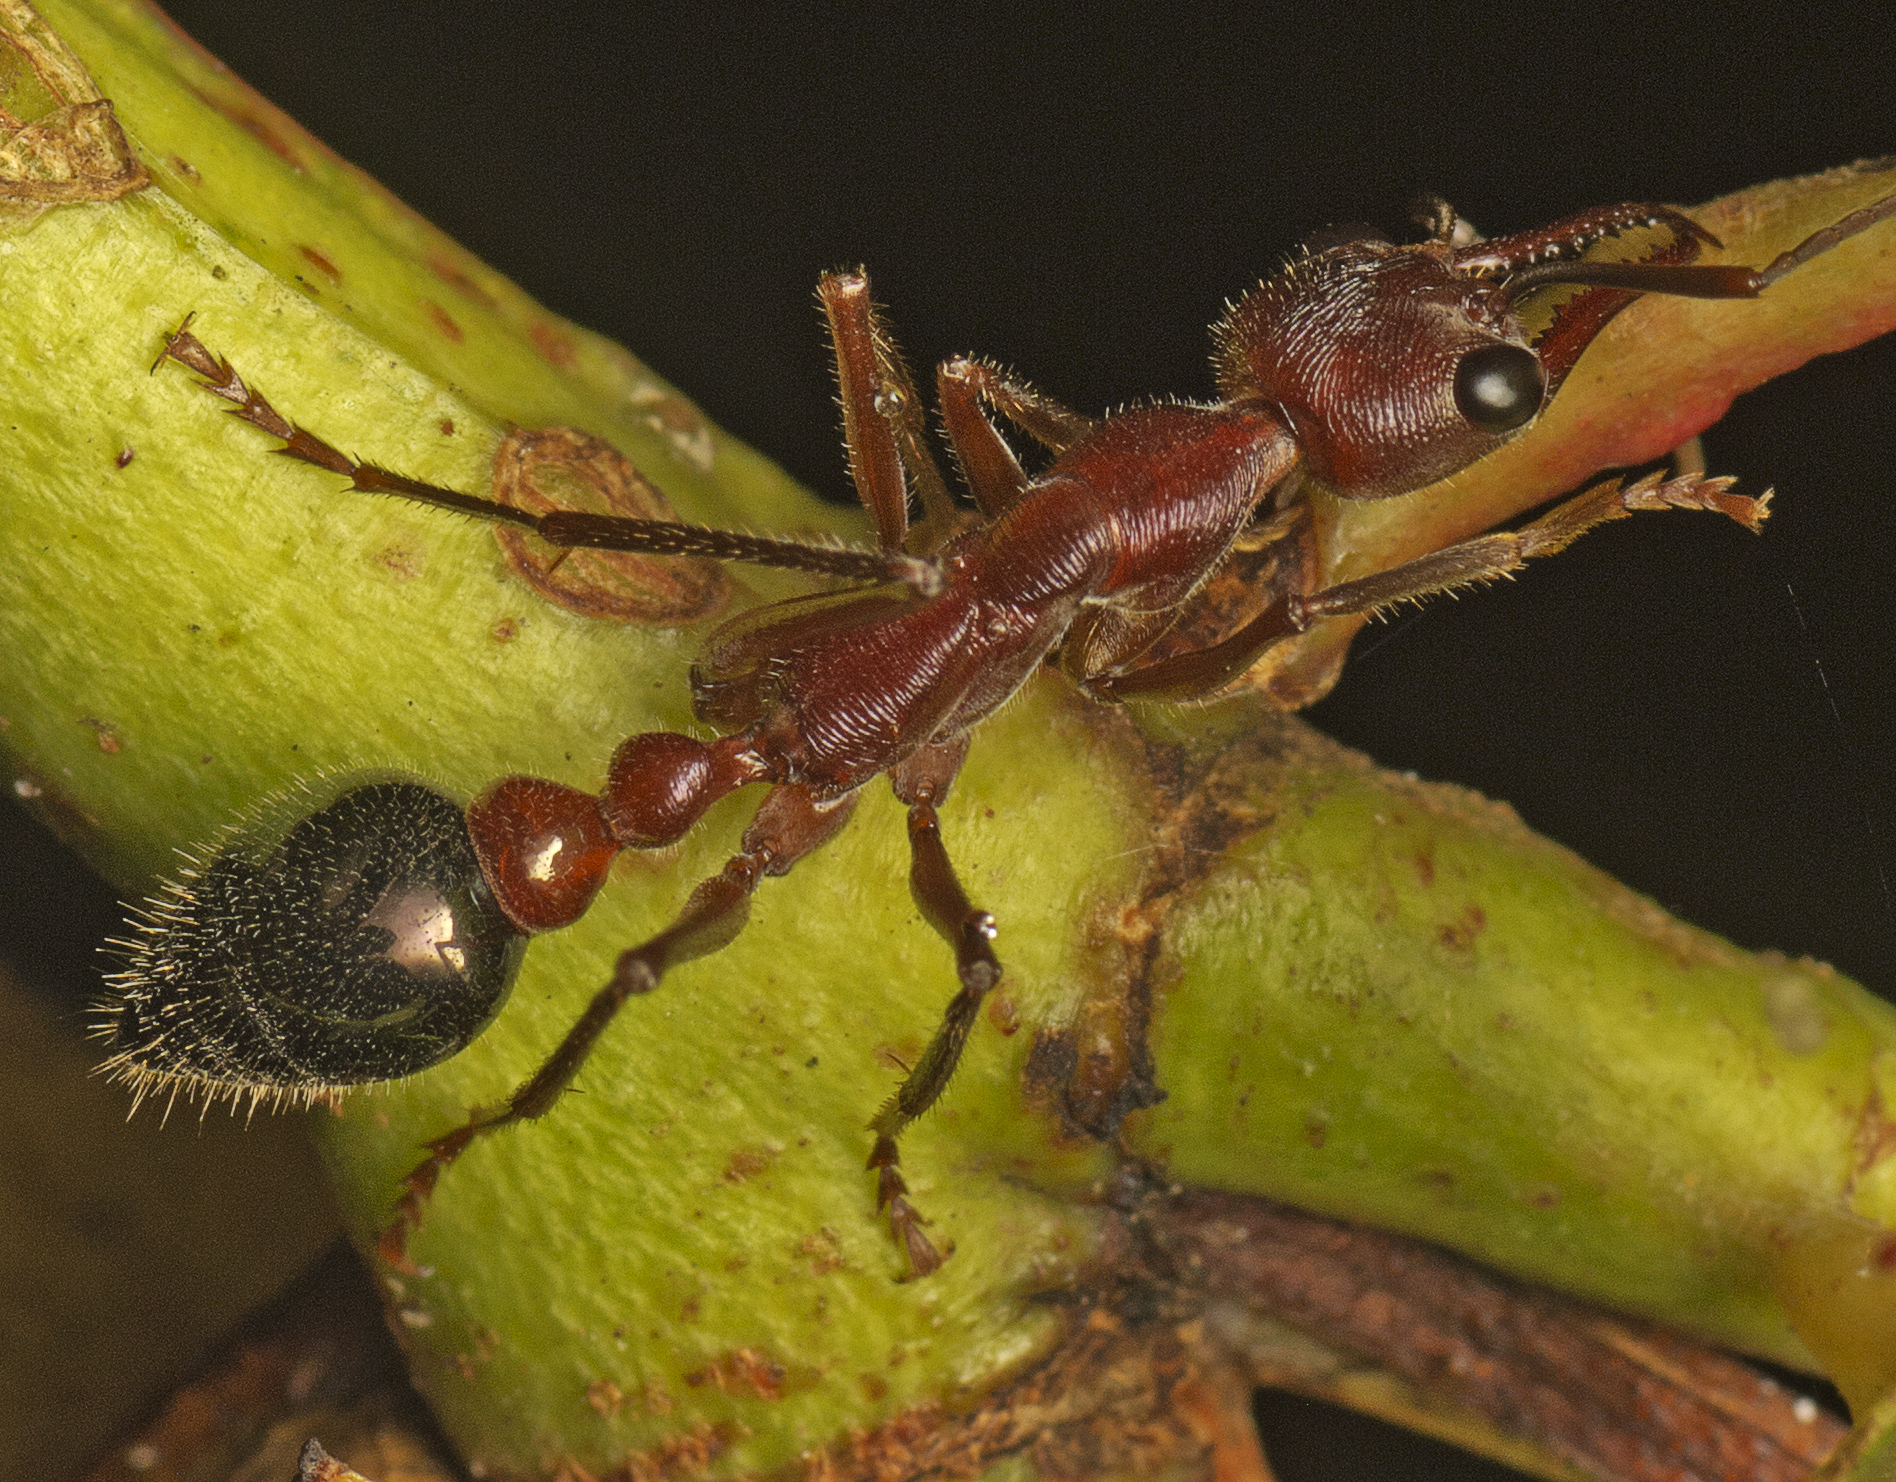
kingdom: Animalia
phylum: Arthropoda
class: Insecta
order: Hymenoptera
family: Formicidae
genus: Myrmecia
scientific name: Myrmecia forficata
